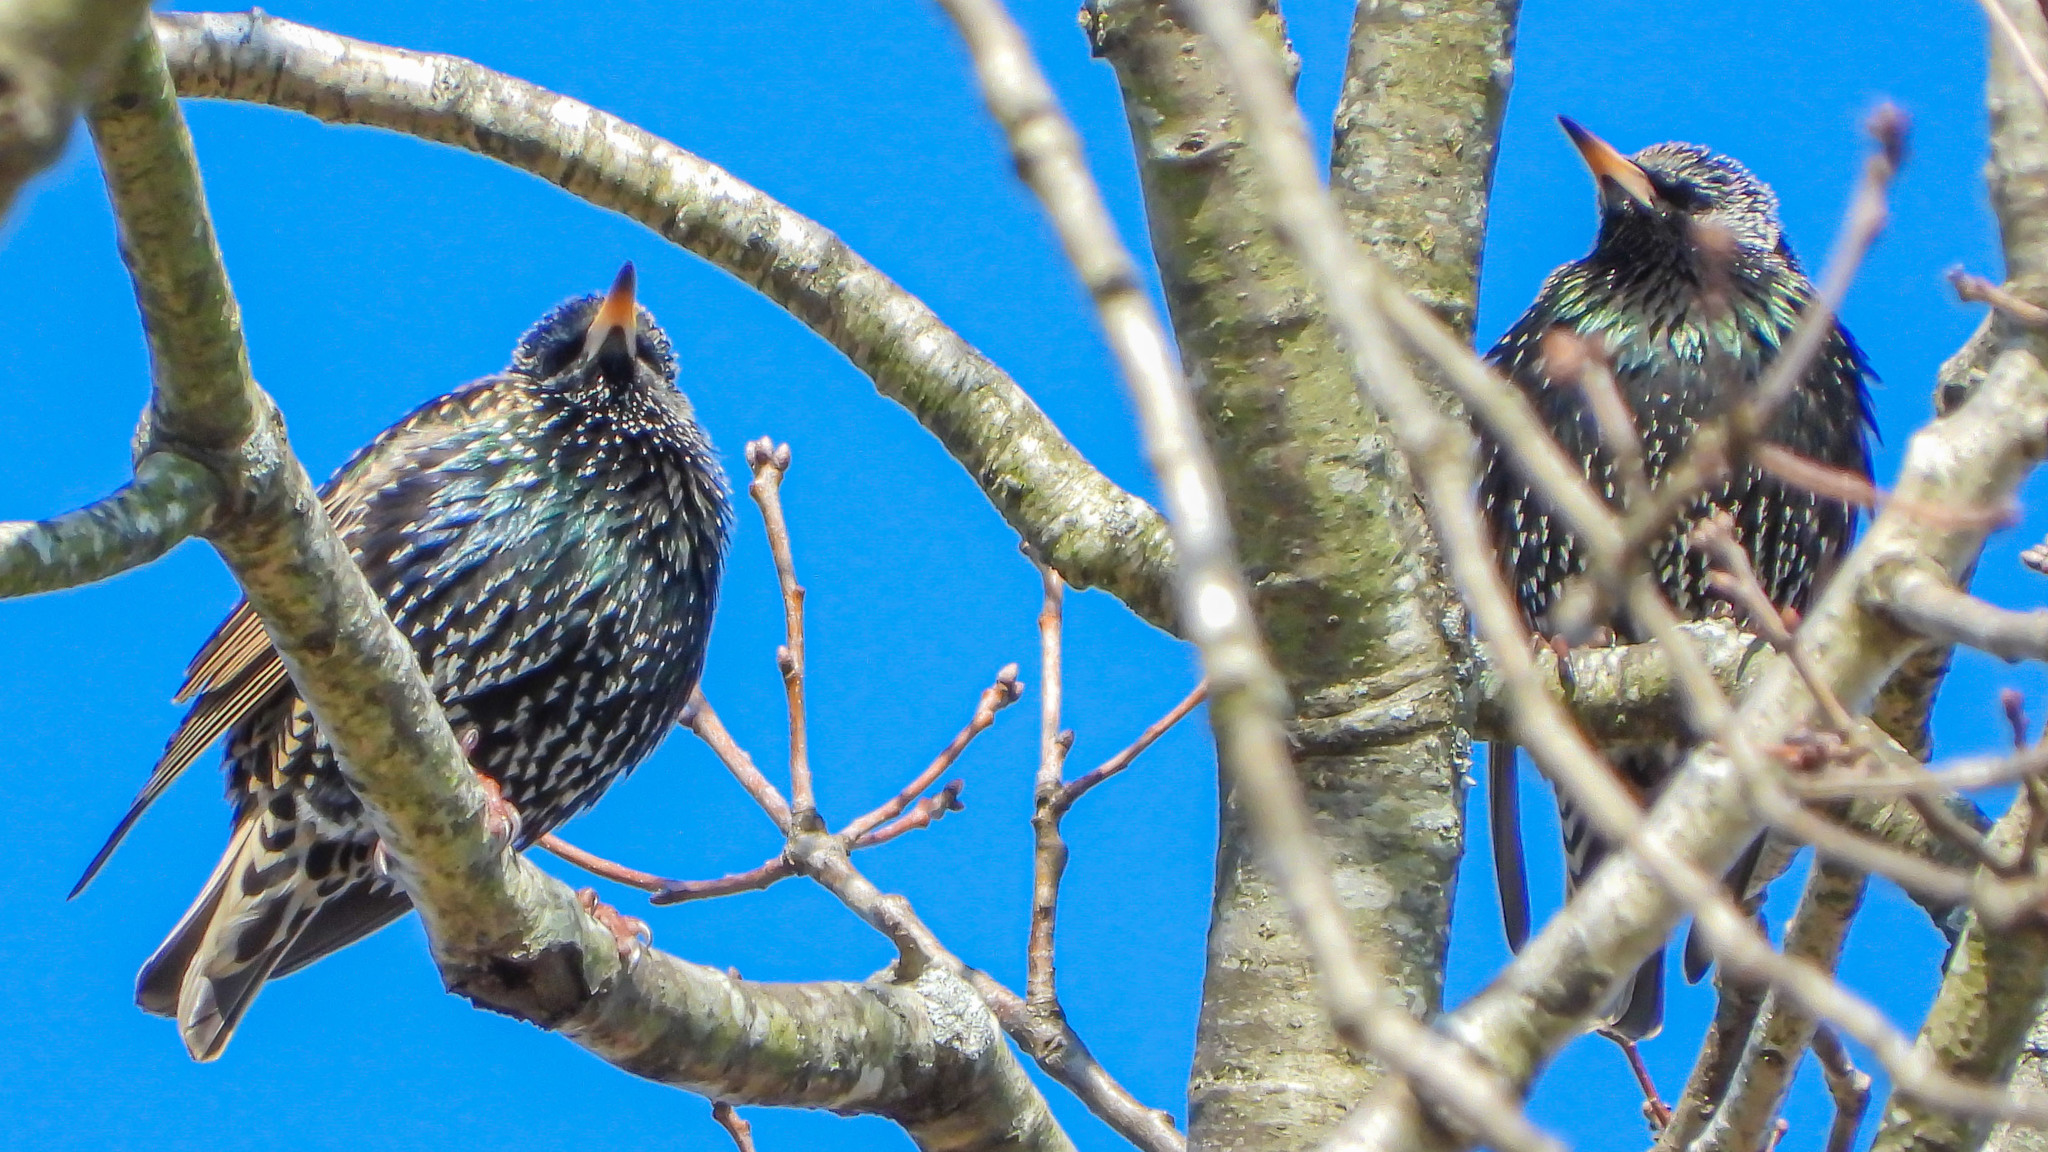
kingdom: Animalia
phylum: Chordata
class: Aves
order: Passeriformes
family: Sturnidae
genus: Sturnus
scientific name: Sturnus vulgaris
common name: Common starling
